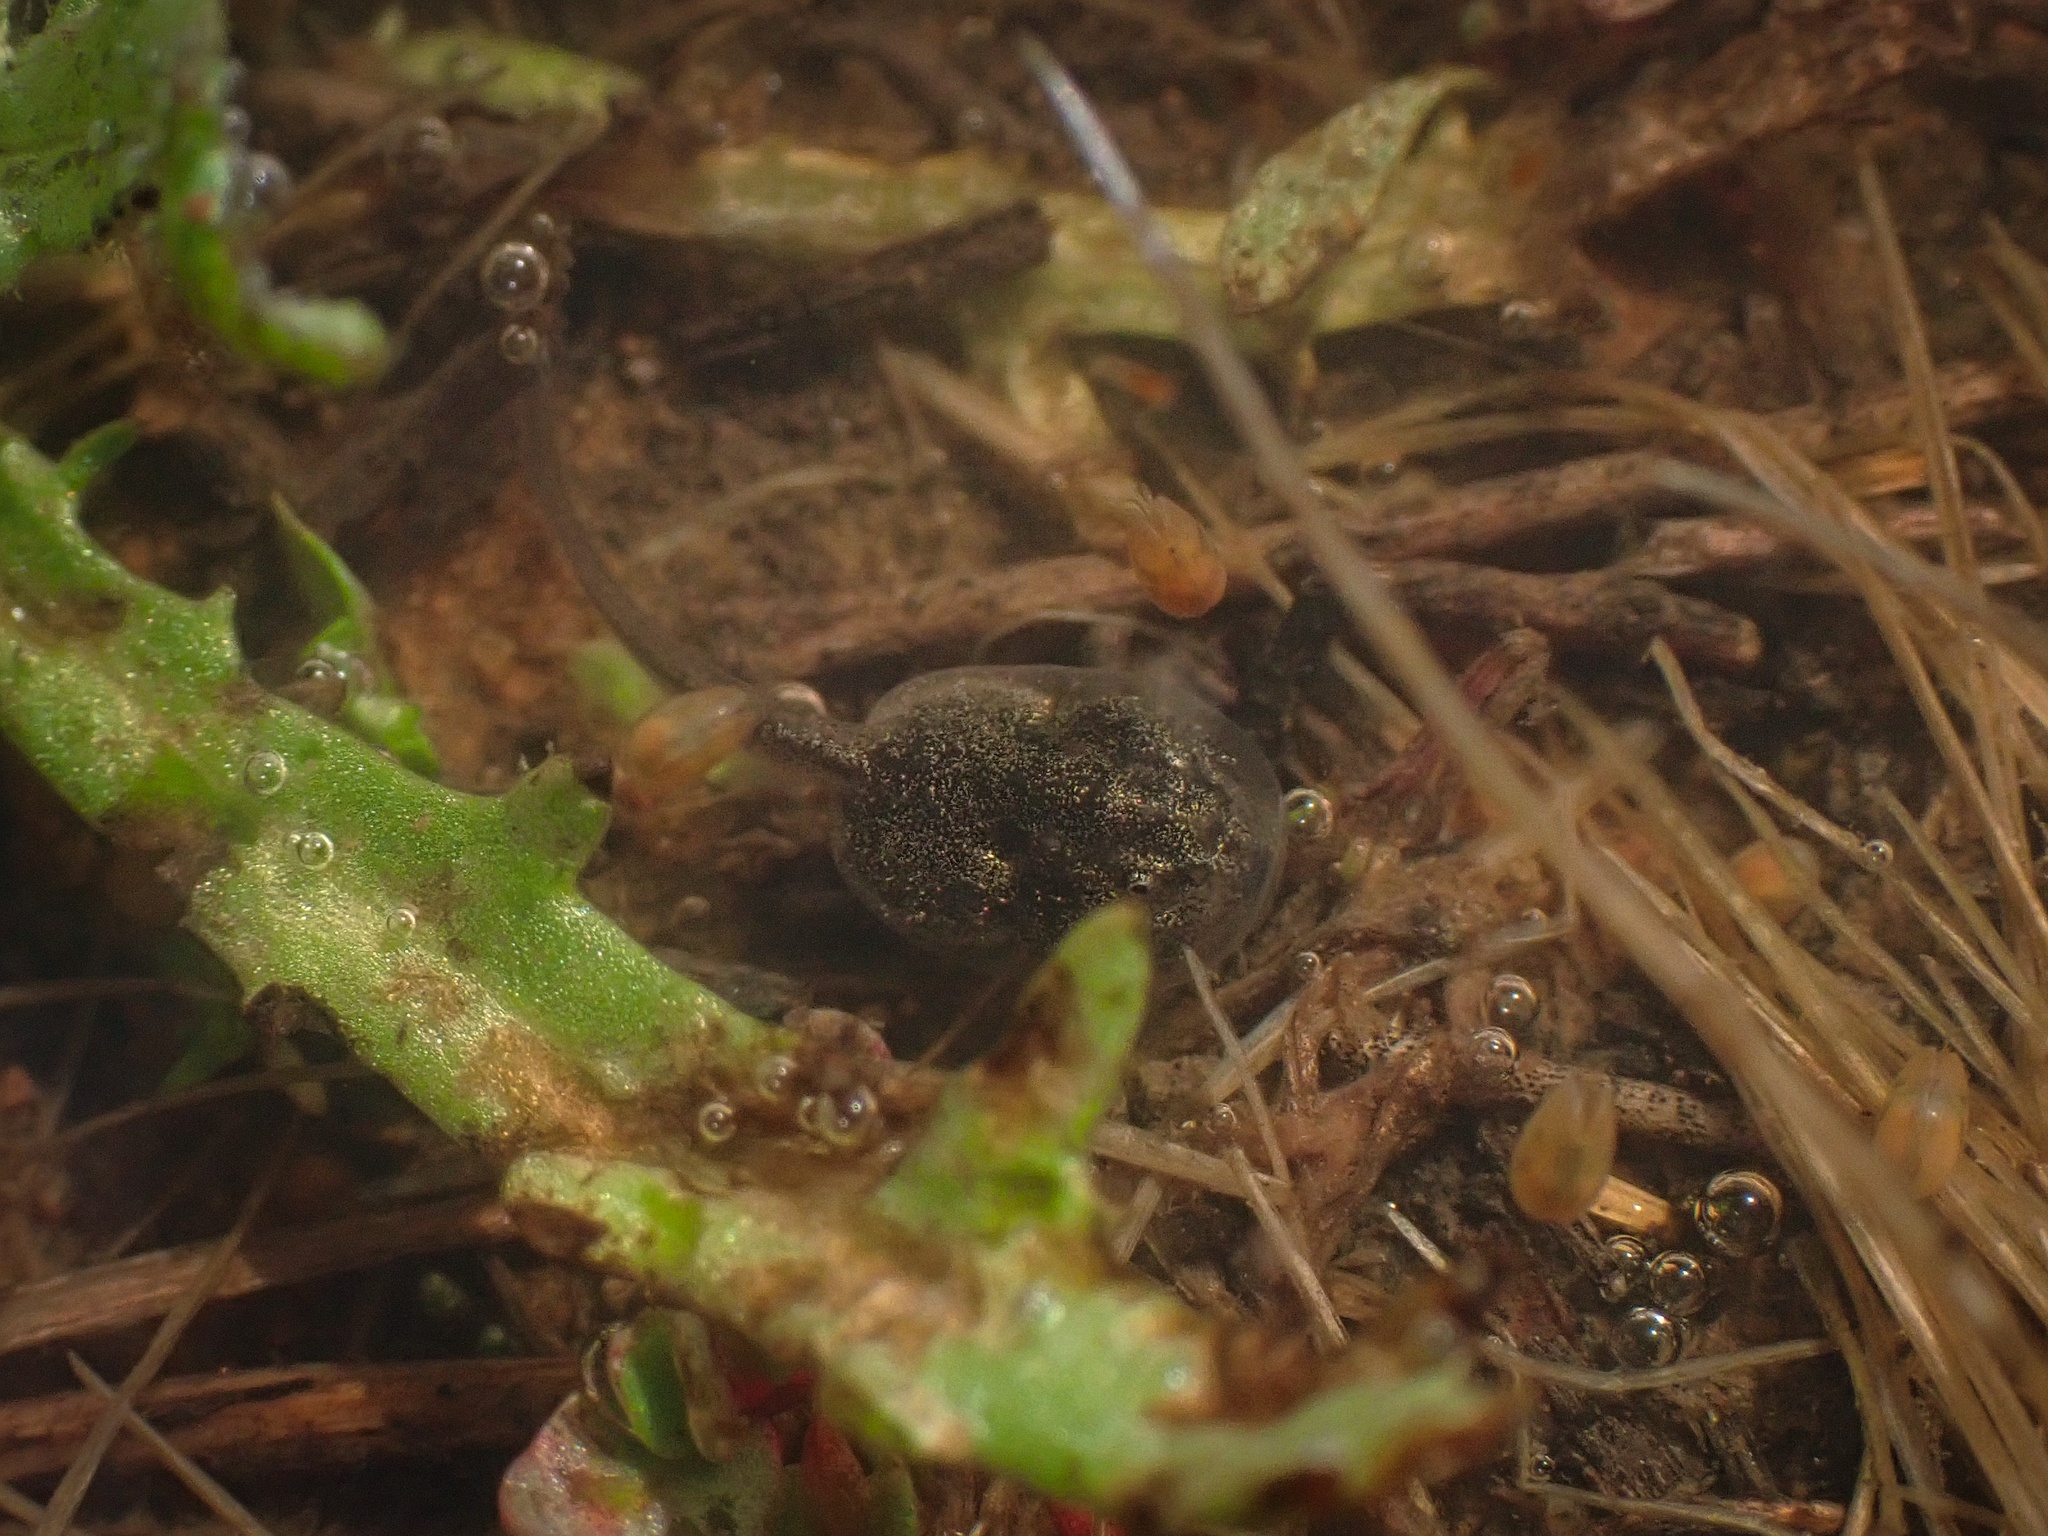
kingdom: Animalia
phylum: Chordata
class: Amphibia
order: Anura
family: Scaphiopodidae
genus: Spea
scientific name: Spea hammondii
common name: Western spadefoot toad
